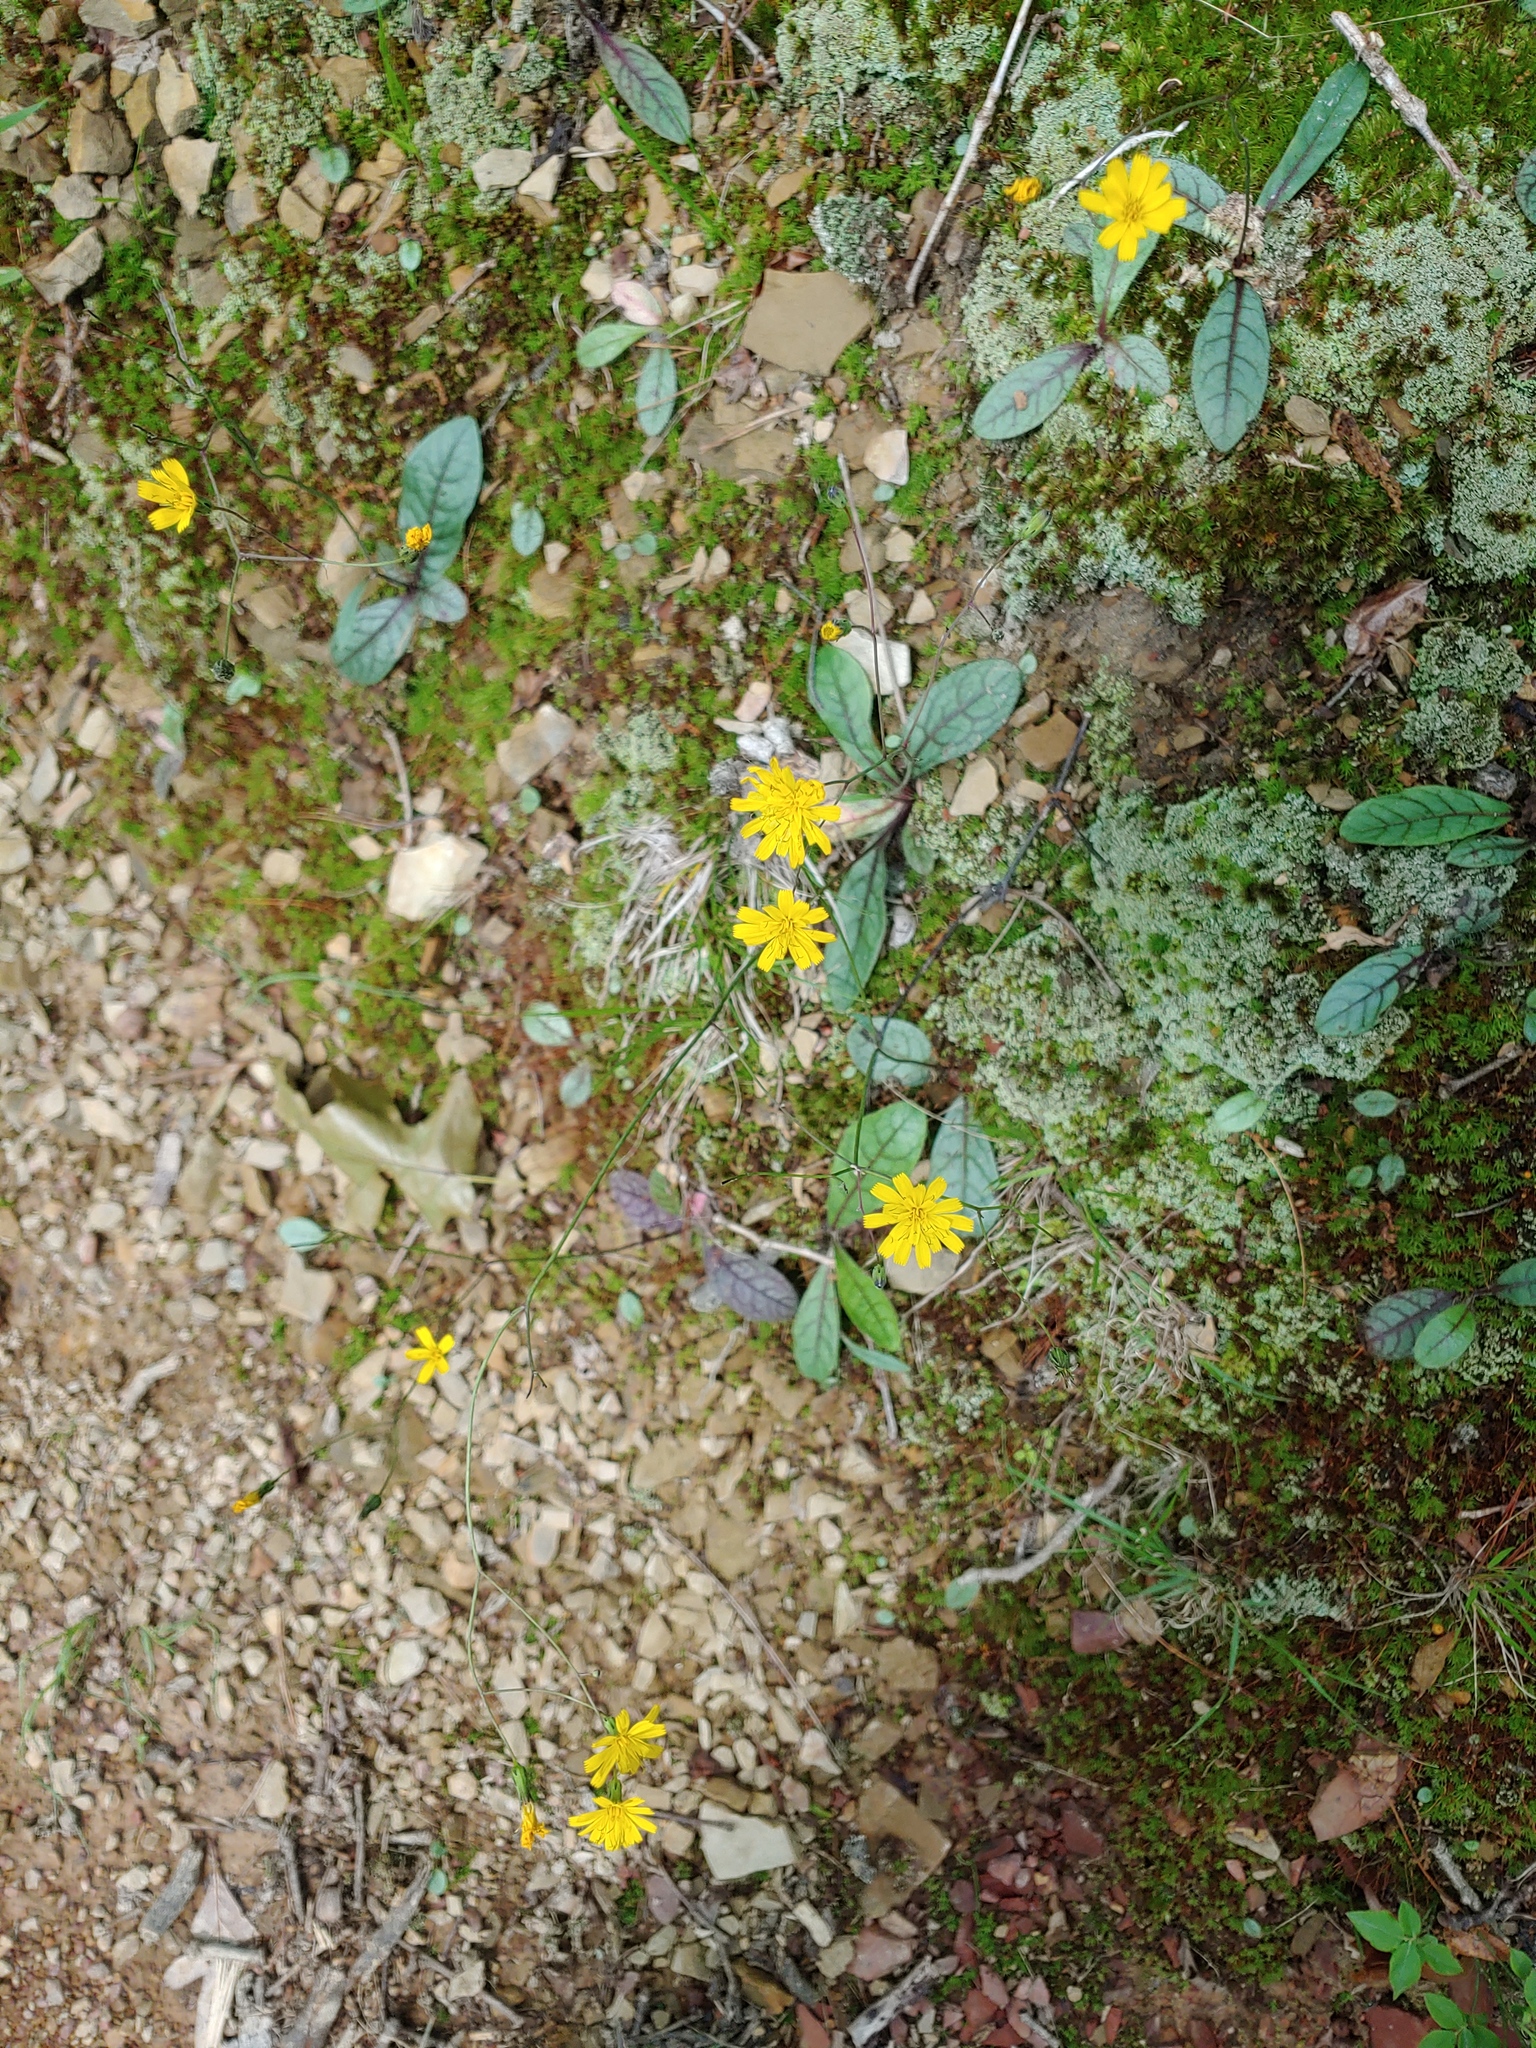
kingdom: Plantae
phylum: Tracheophyta
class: Magnoliopsida
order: Asterales
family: Asteraceae
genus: Hieracium
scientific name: Hieracium venosum
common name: Rattlesnake hawkweed
